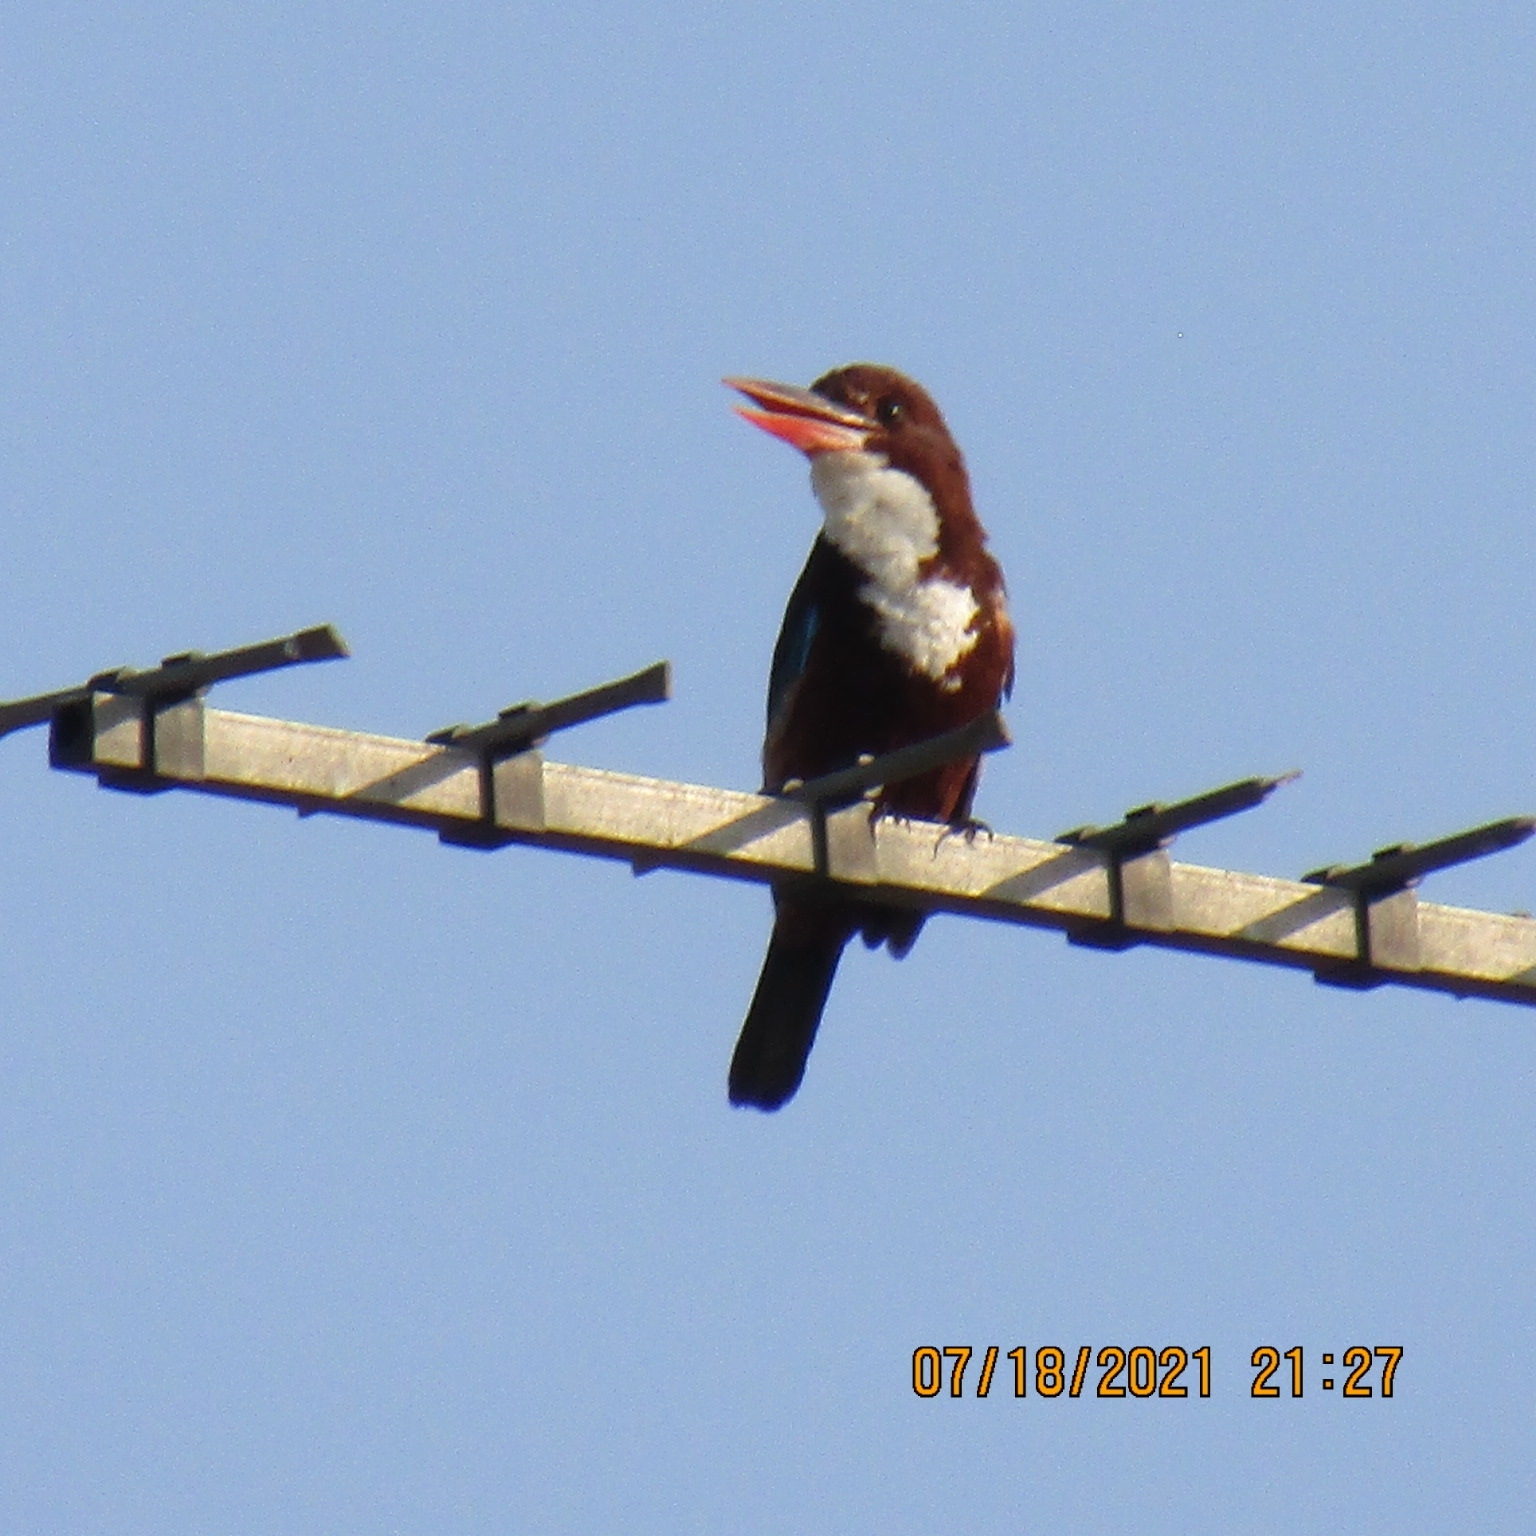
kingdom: Animalia
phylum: Chordata
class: Aves
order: Coraciiformes
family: Alcedinidae
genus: Halcyon
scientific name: Halcyon smyrnensis
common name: White-throated kingfisher
